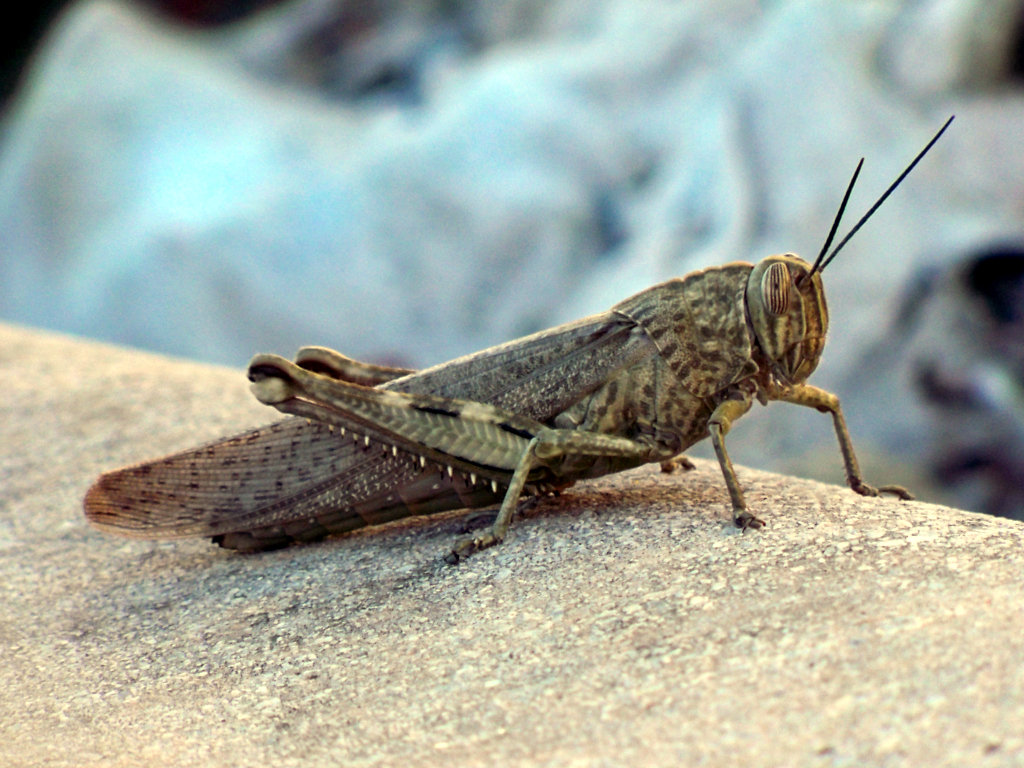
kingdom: Animalia
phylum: Arthropoda
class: Insecta
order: Orthoptera
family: Acrididae
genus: Anacridium
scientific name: Anacridium aegyptium
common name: Egyptian grasshopper
